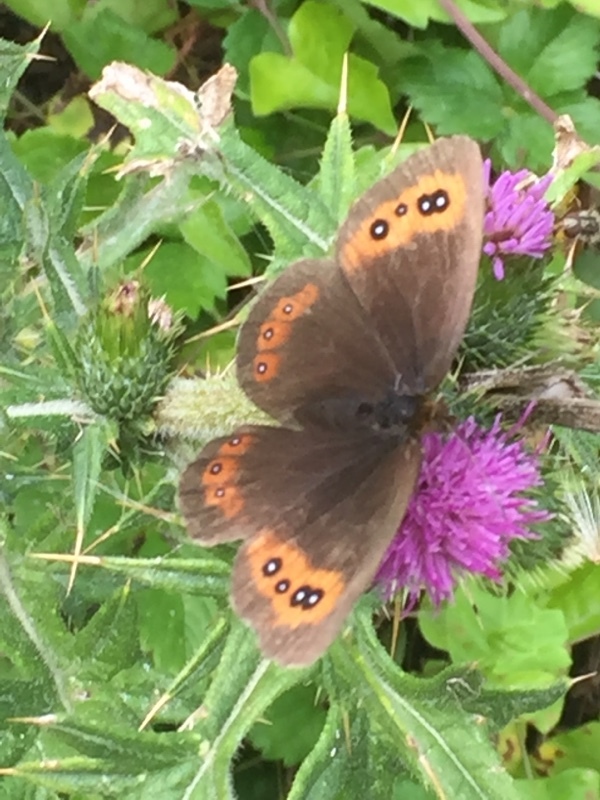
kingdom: Animalia
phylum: Arthropoda
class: Insecta
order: Lepidoptera
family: Nymphalidae
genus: Erebia
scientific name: Erebia aethiops
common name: Scotch argus
